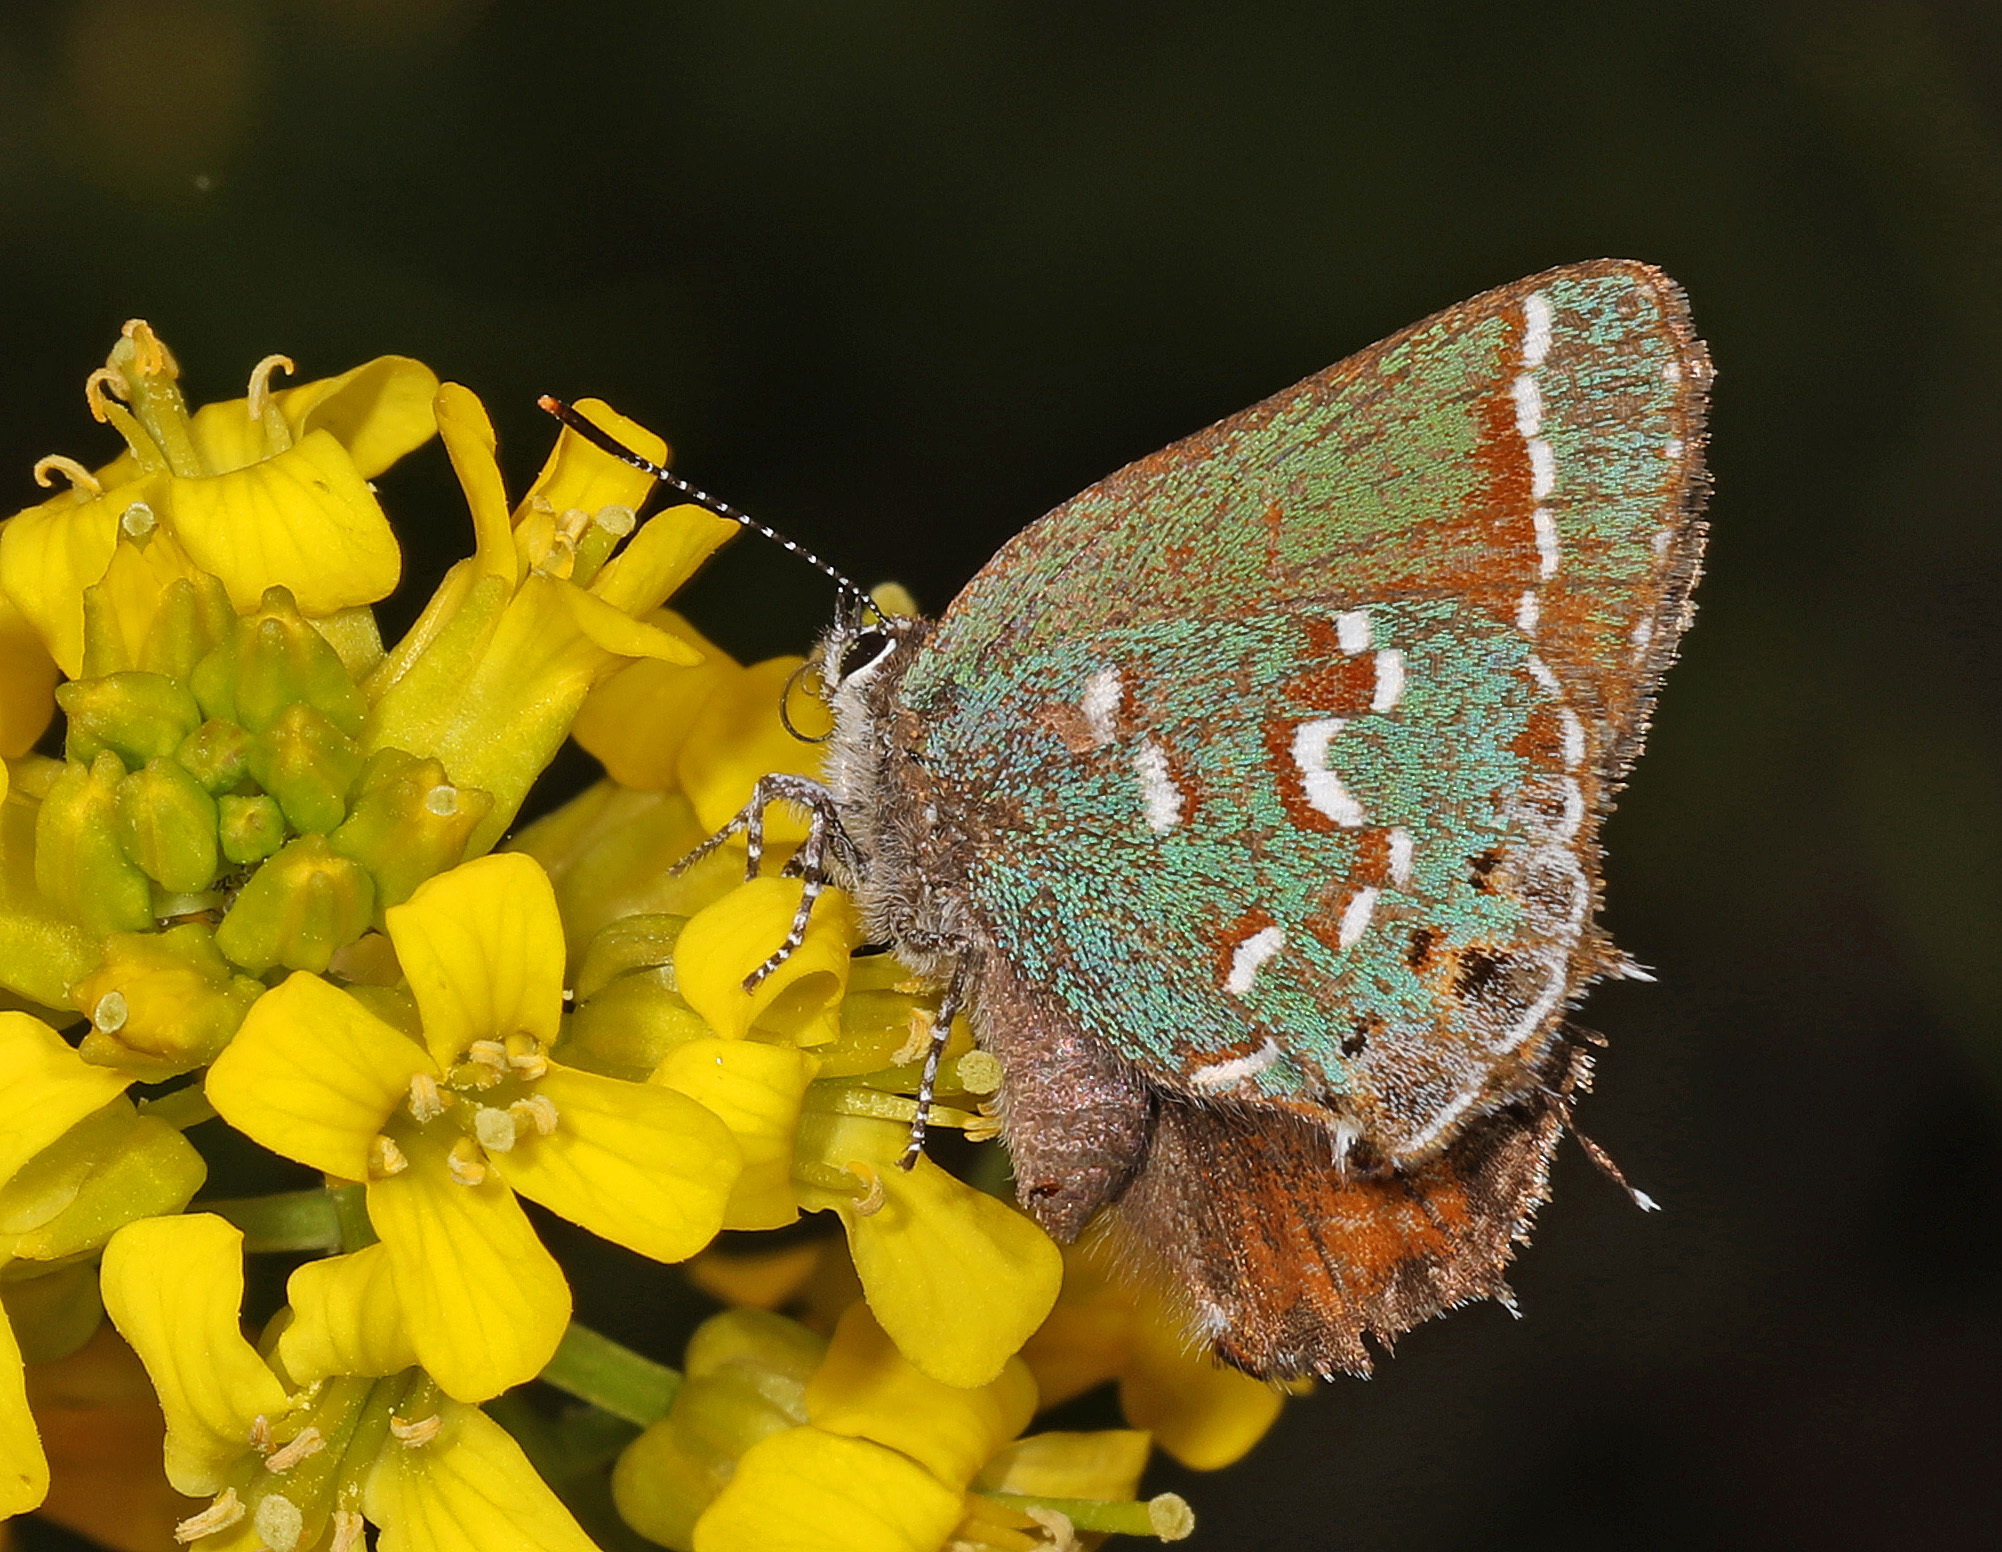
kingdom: Animalia
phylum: Arthropoda
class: Insecta
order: Lepidoptera
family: Lycaenidae
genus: Mitoura
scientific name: Mitoura gryneus
